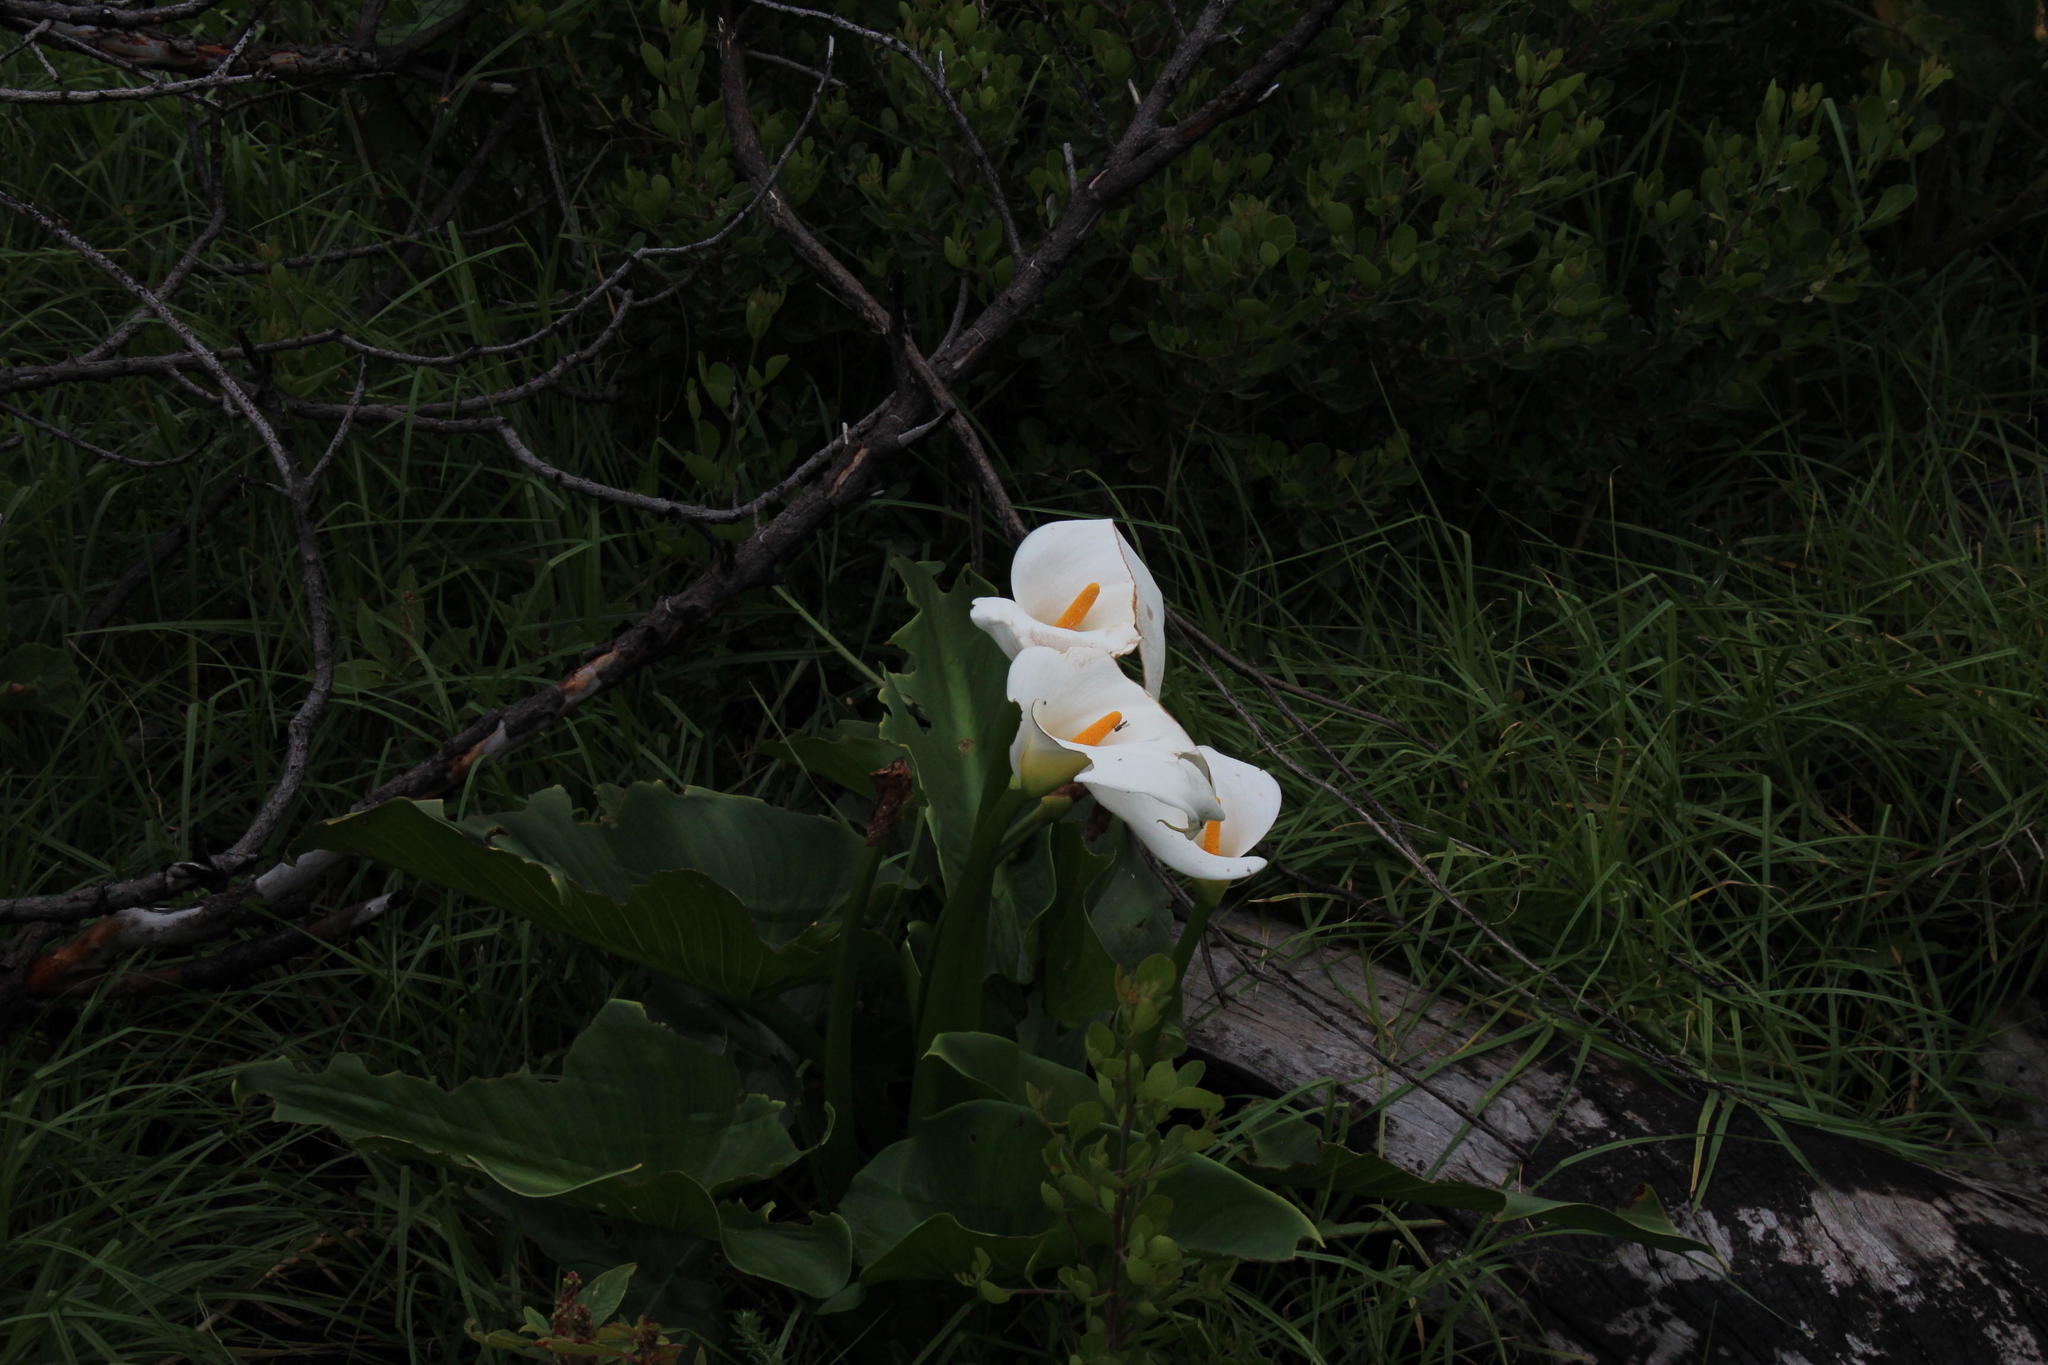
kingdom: Plantae
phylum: Tracheophyta
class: Liliopsida
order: Alismatales
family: Araceae
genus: Zantedeschia
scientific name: Zantedeschia aethiopica
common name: Altar-lily
